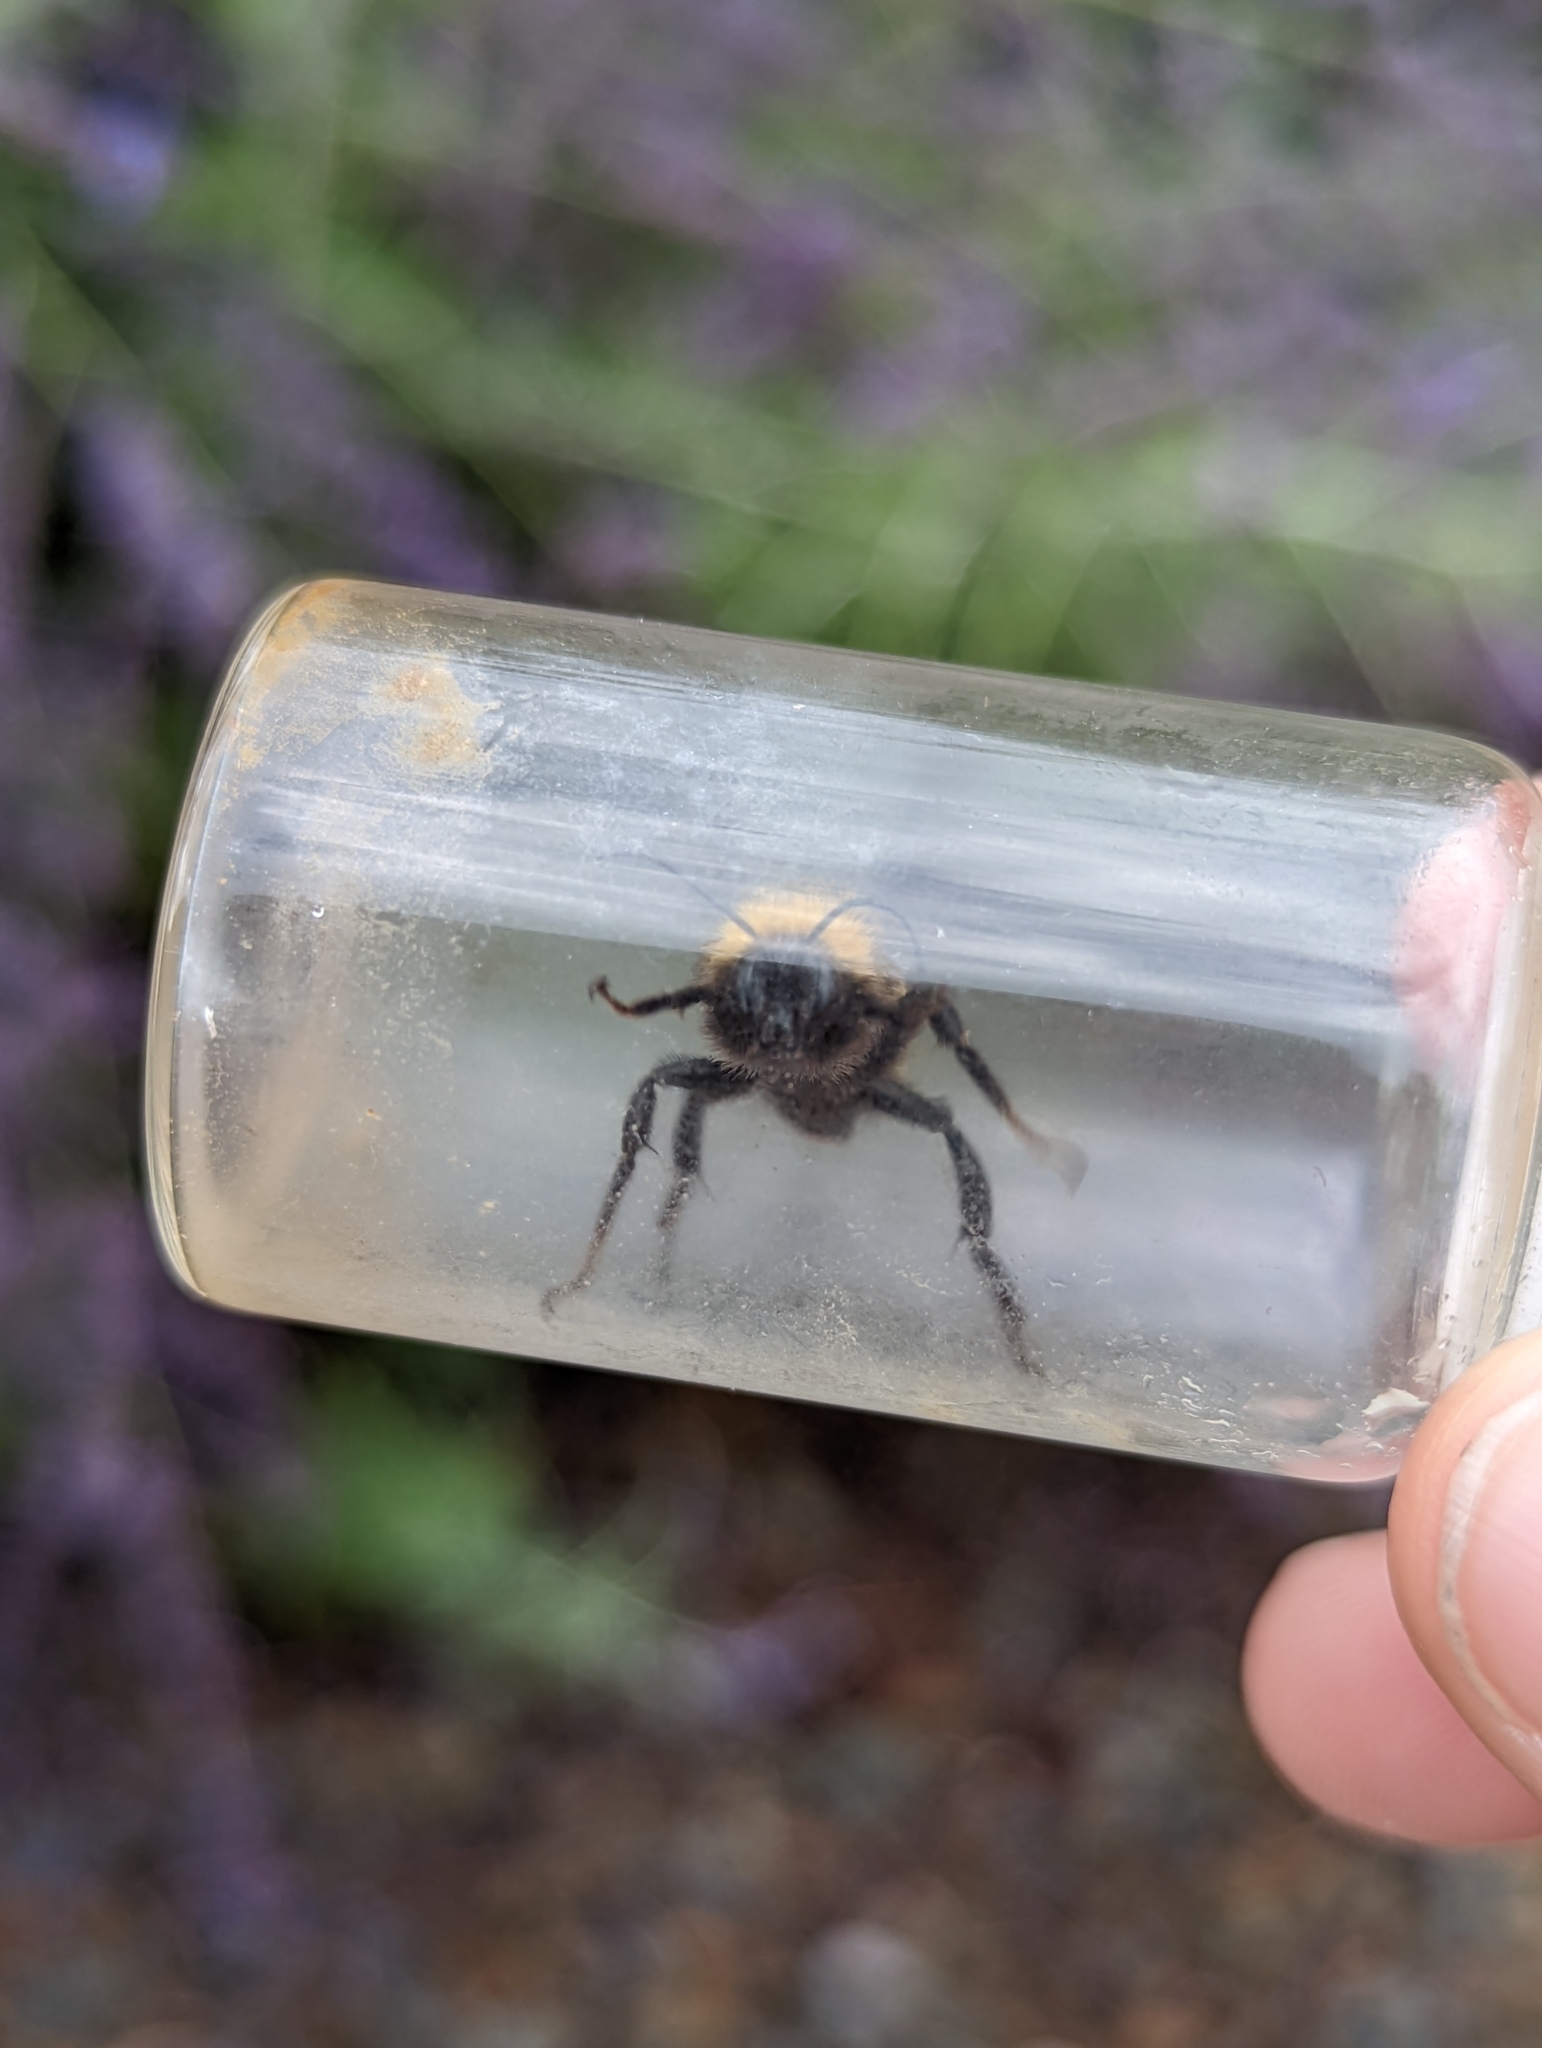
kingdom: Animalia
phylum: Arthropoda
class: Insecta
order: Hymenoptera
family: Apidae
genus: Bombus
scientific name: Bombus sonorus
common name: Sonoran bumble bee
